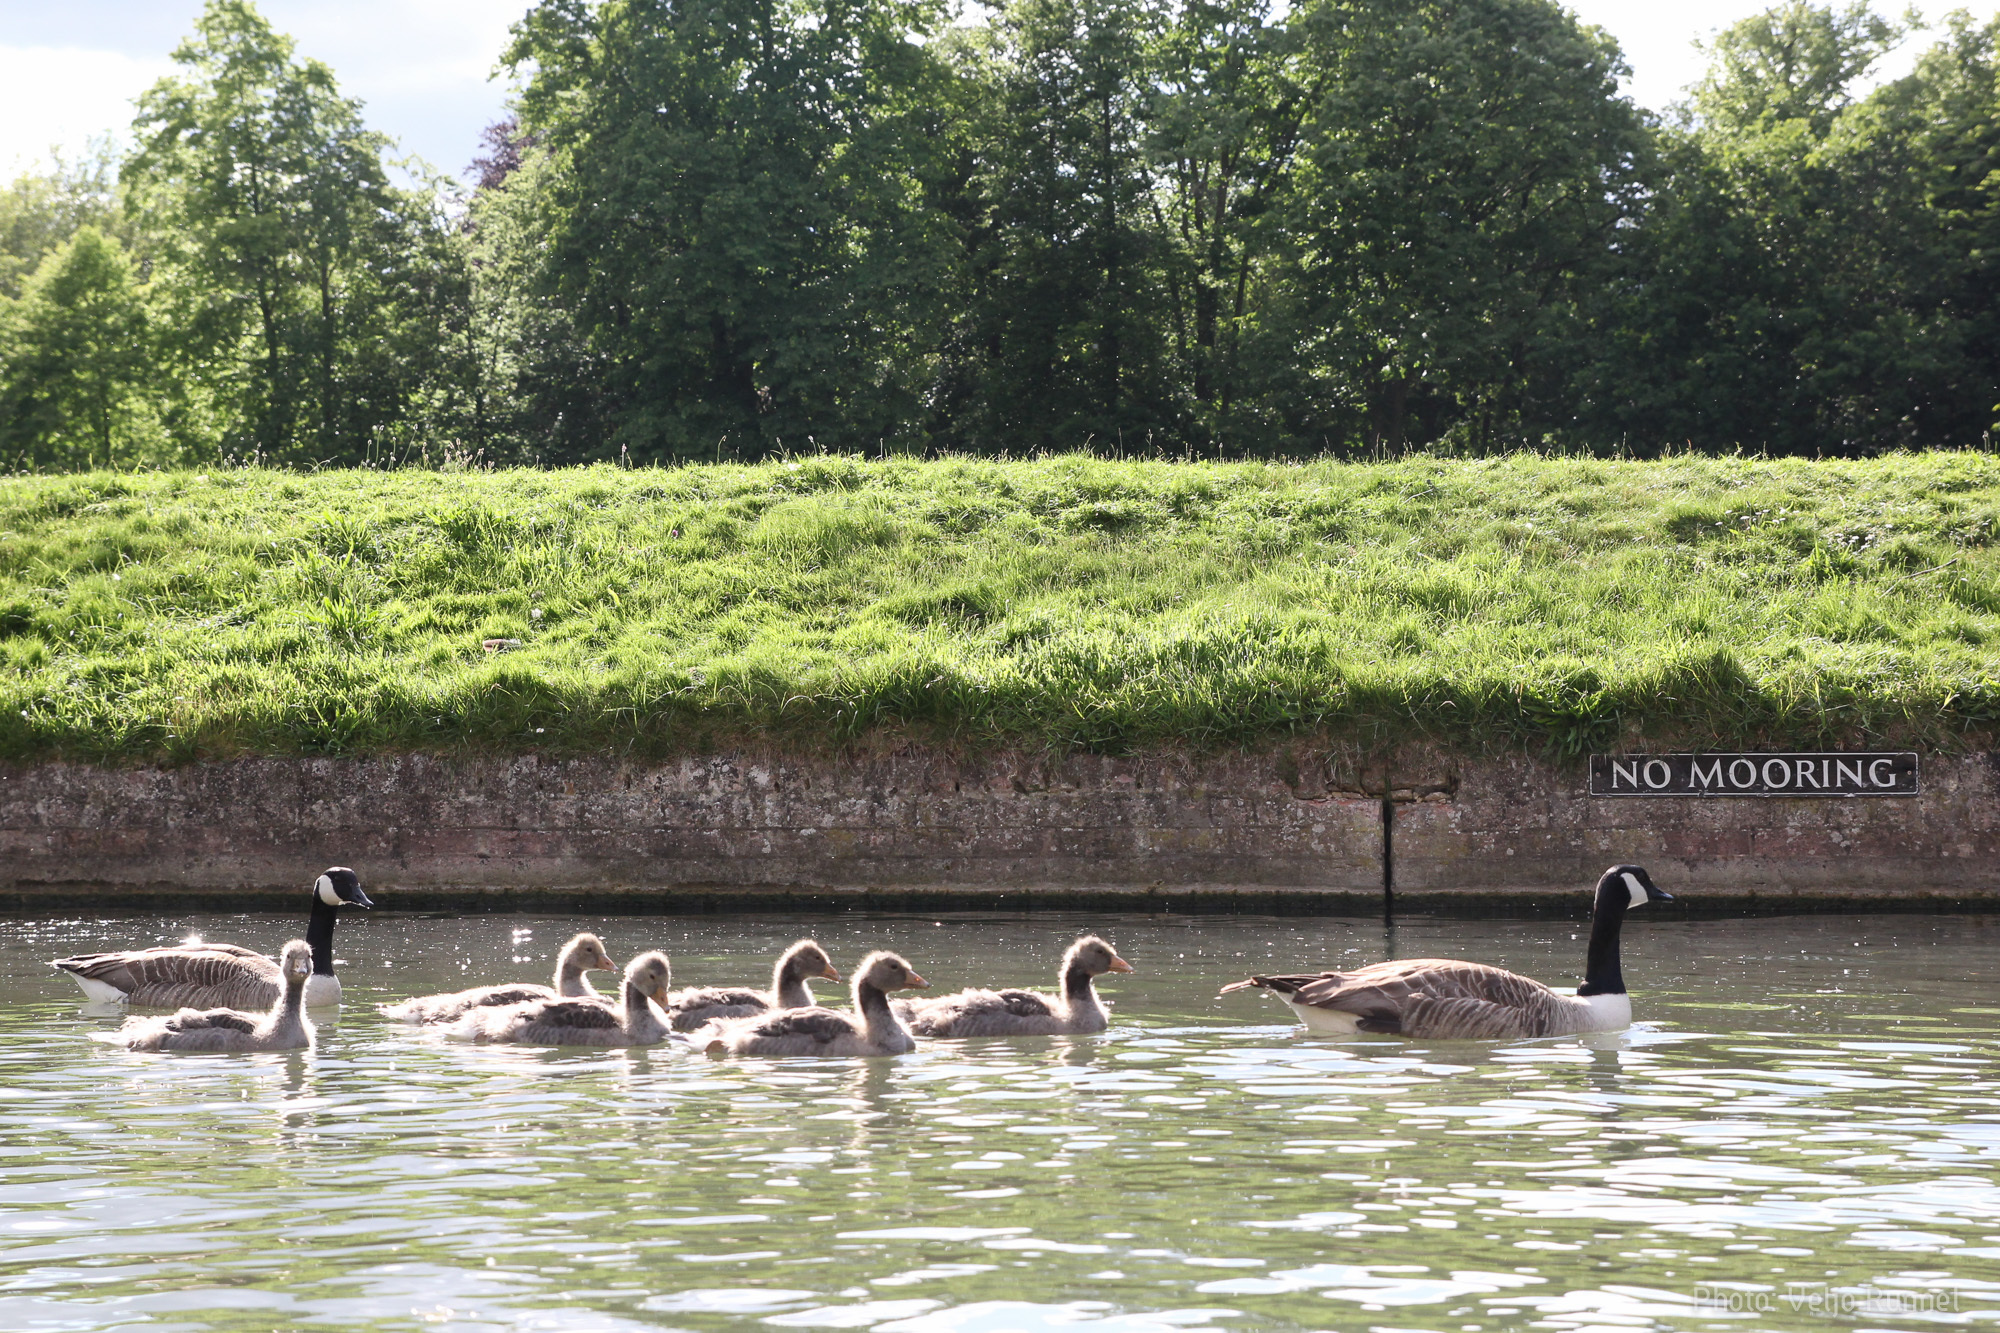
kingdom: Animalia
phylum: Chordata
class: Aves
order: Anseriformes
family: Anatidae
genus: Branta
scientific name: Branta canadensis
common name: Canada goose
